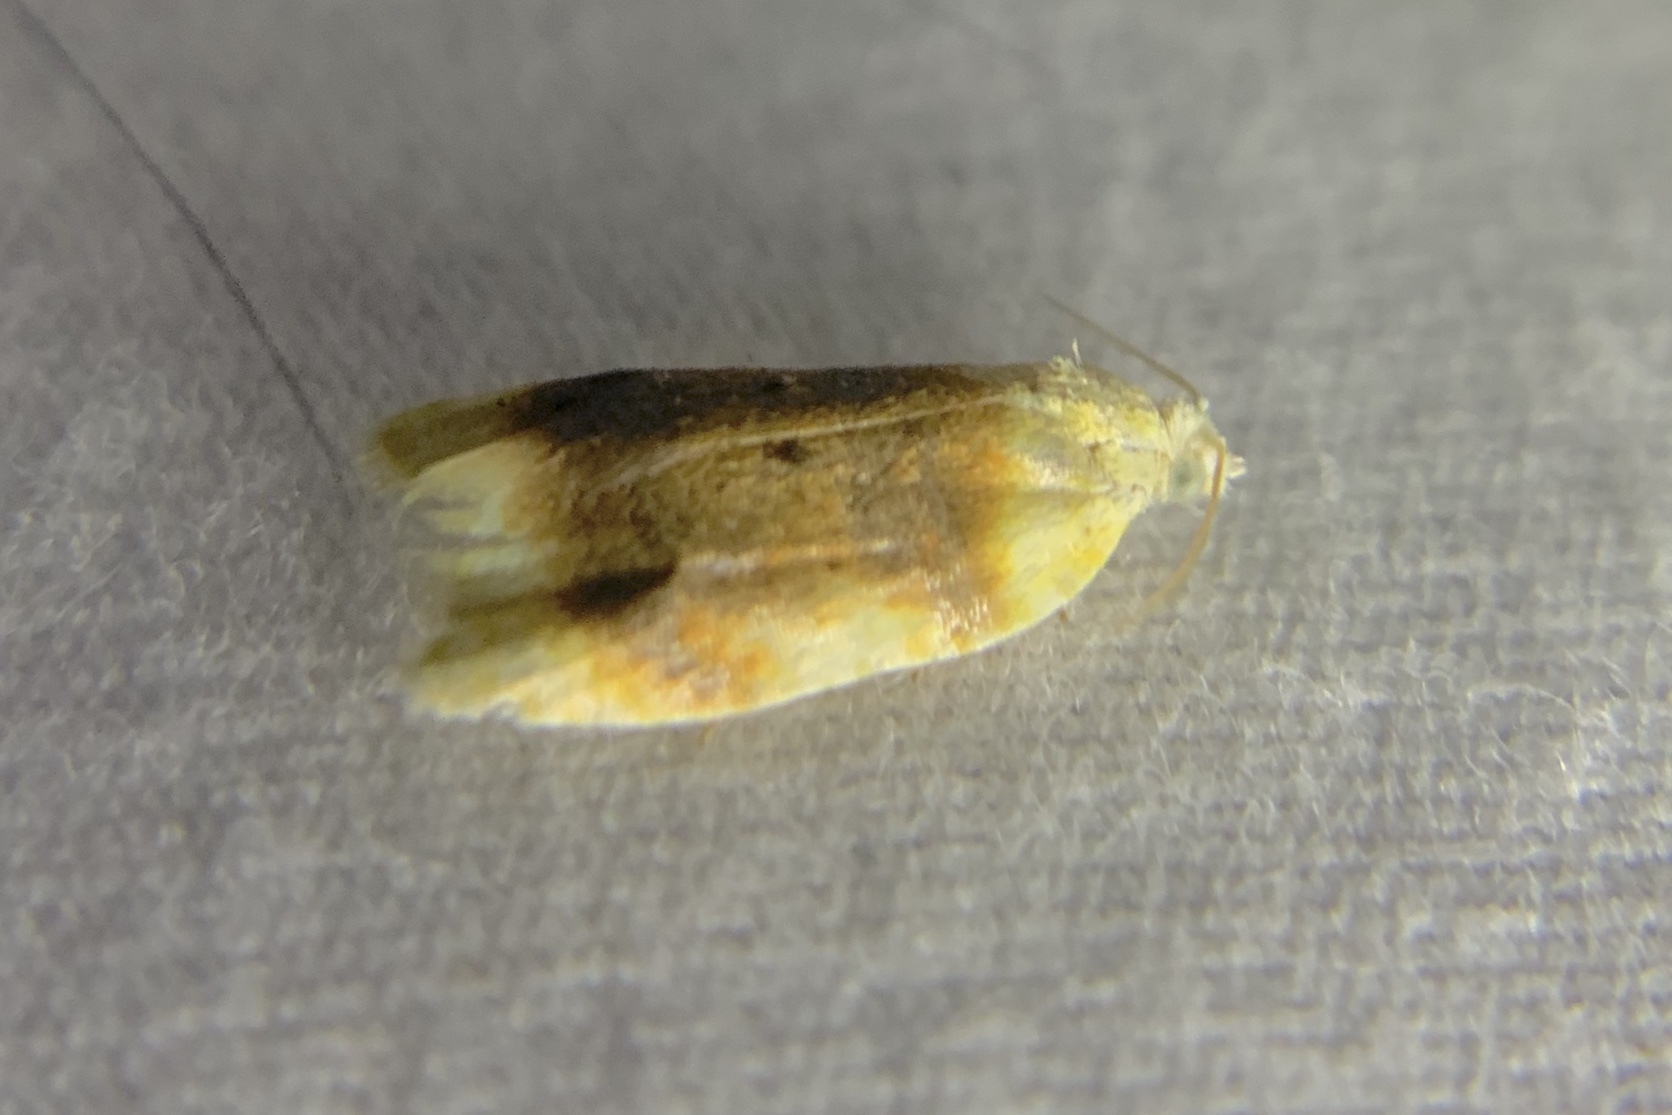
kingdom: Animalia
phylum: Arthropoda
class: Insecta
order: Lepidoptera
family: Tortricidae
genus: Acleris
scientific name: Acleris semipurpurana
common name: Oak leaftier moth
